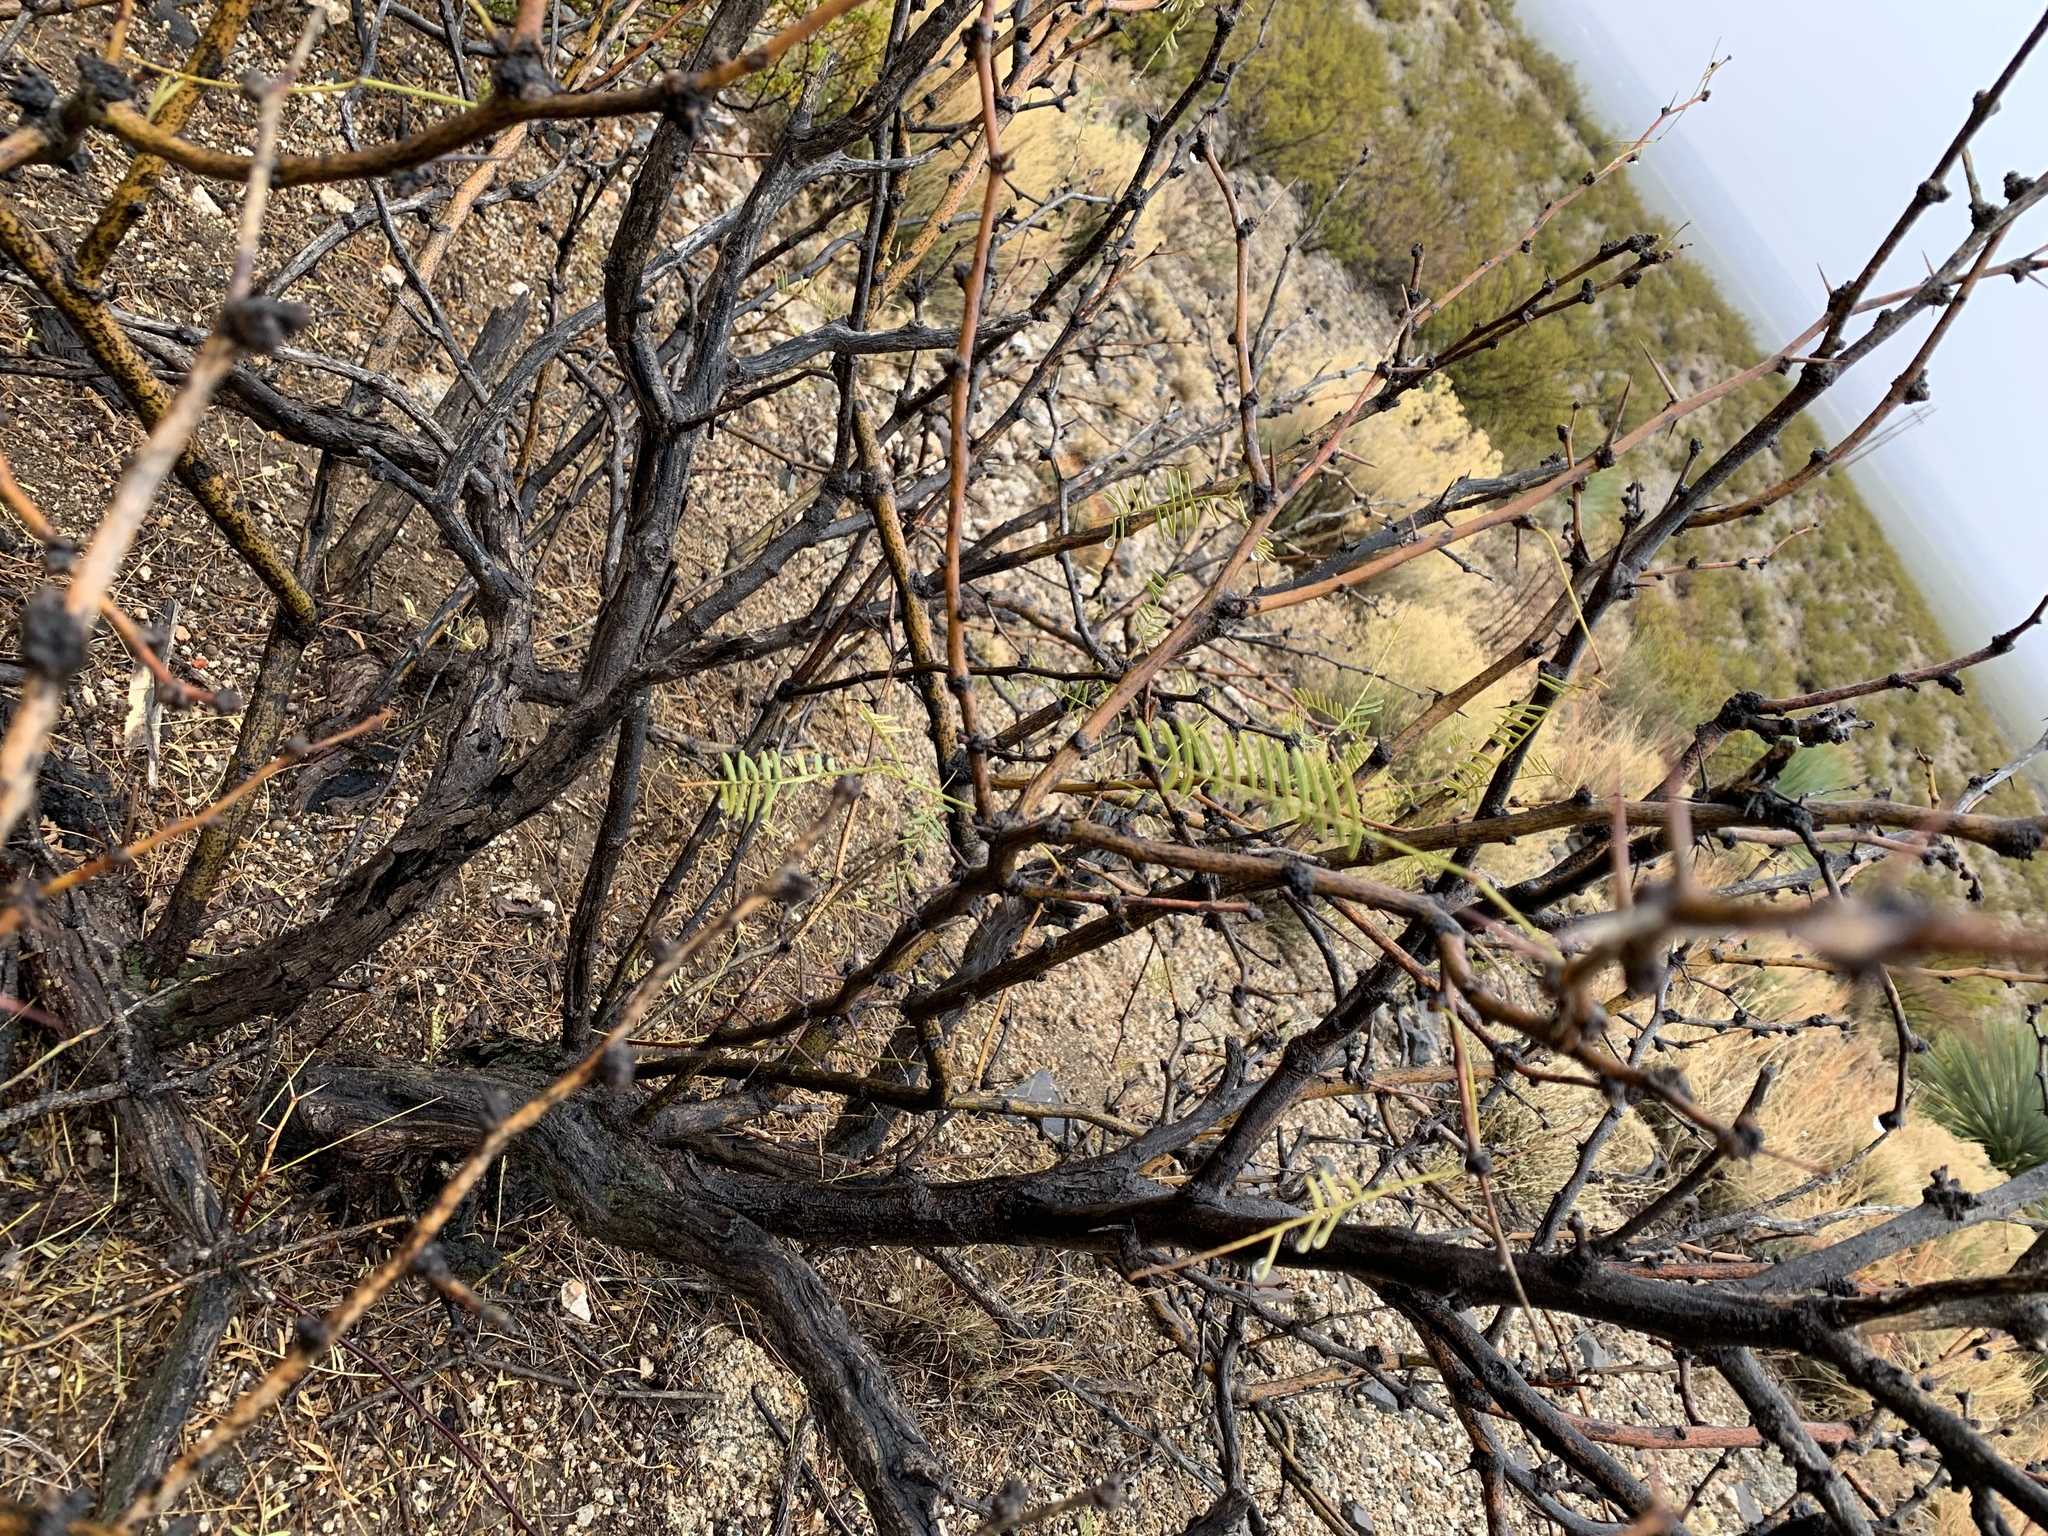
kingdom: Plantae
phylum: Tracheophyta
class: Magnoliopsida
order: Fabales
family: Fabaceae
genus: Prosopis
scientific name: Prosopis glandulosa
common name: Honey mesquite
